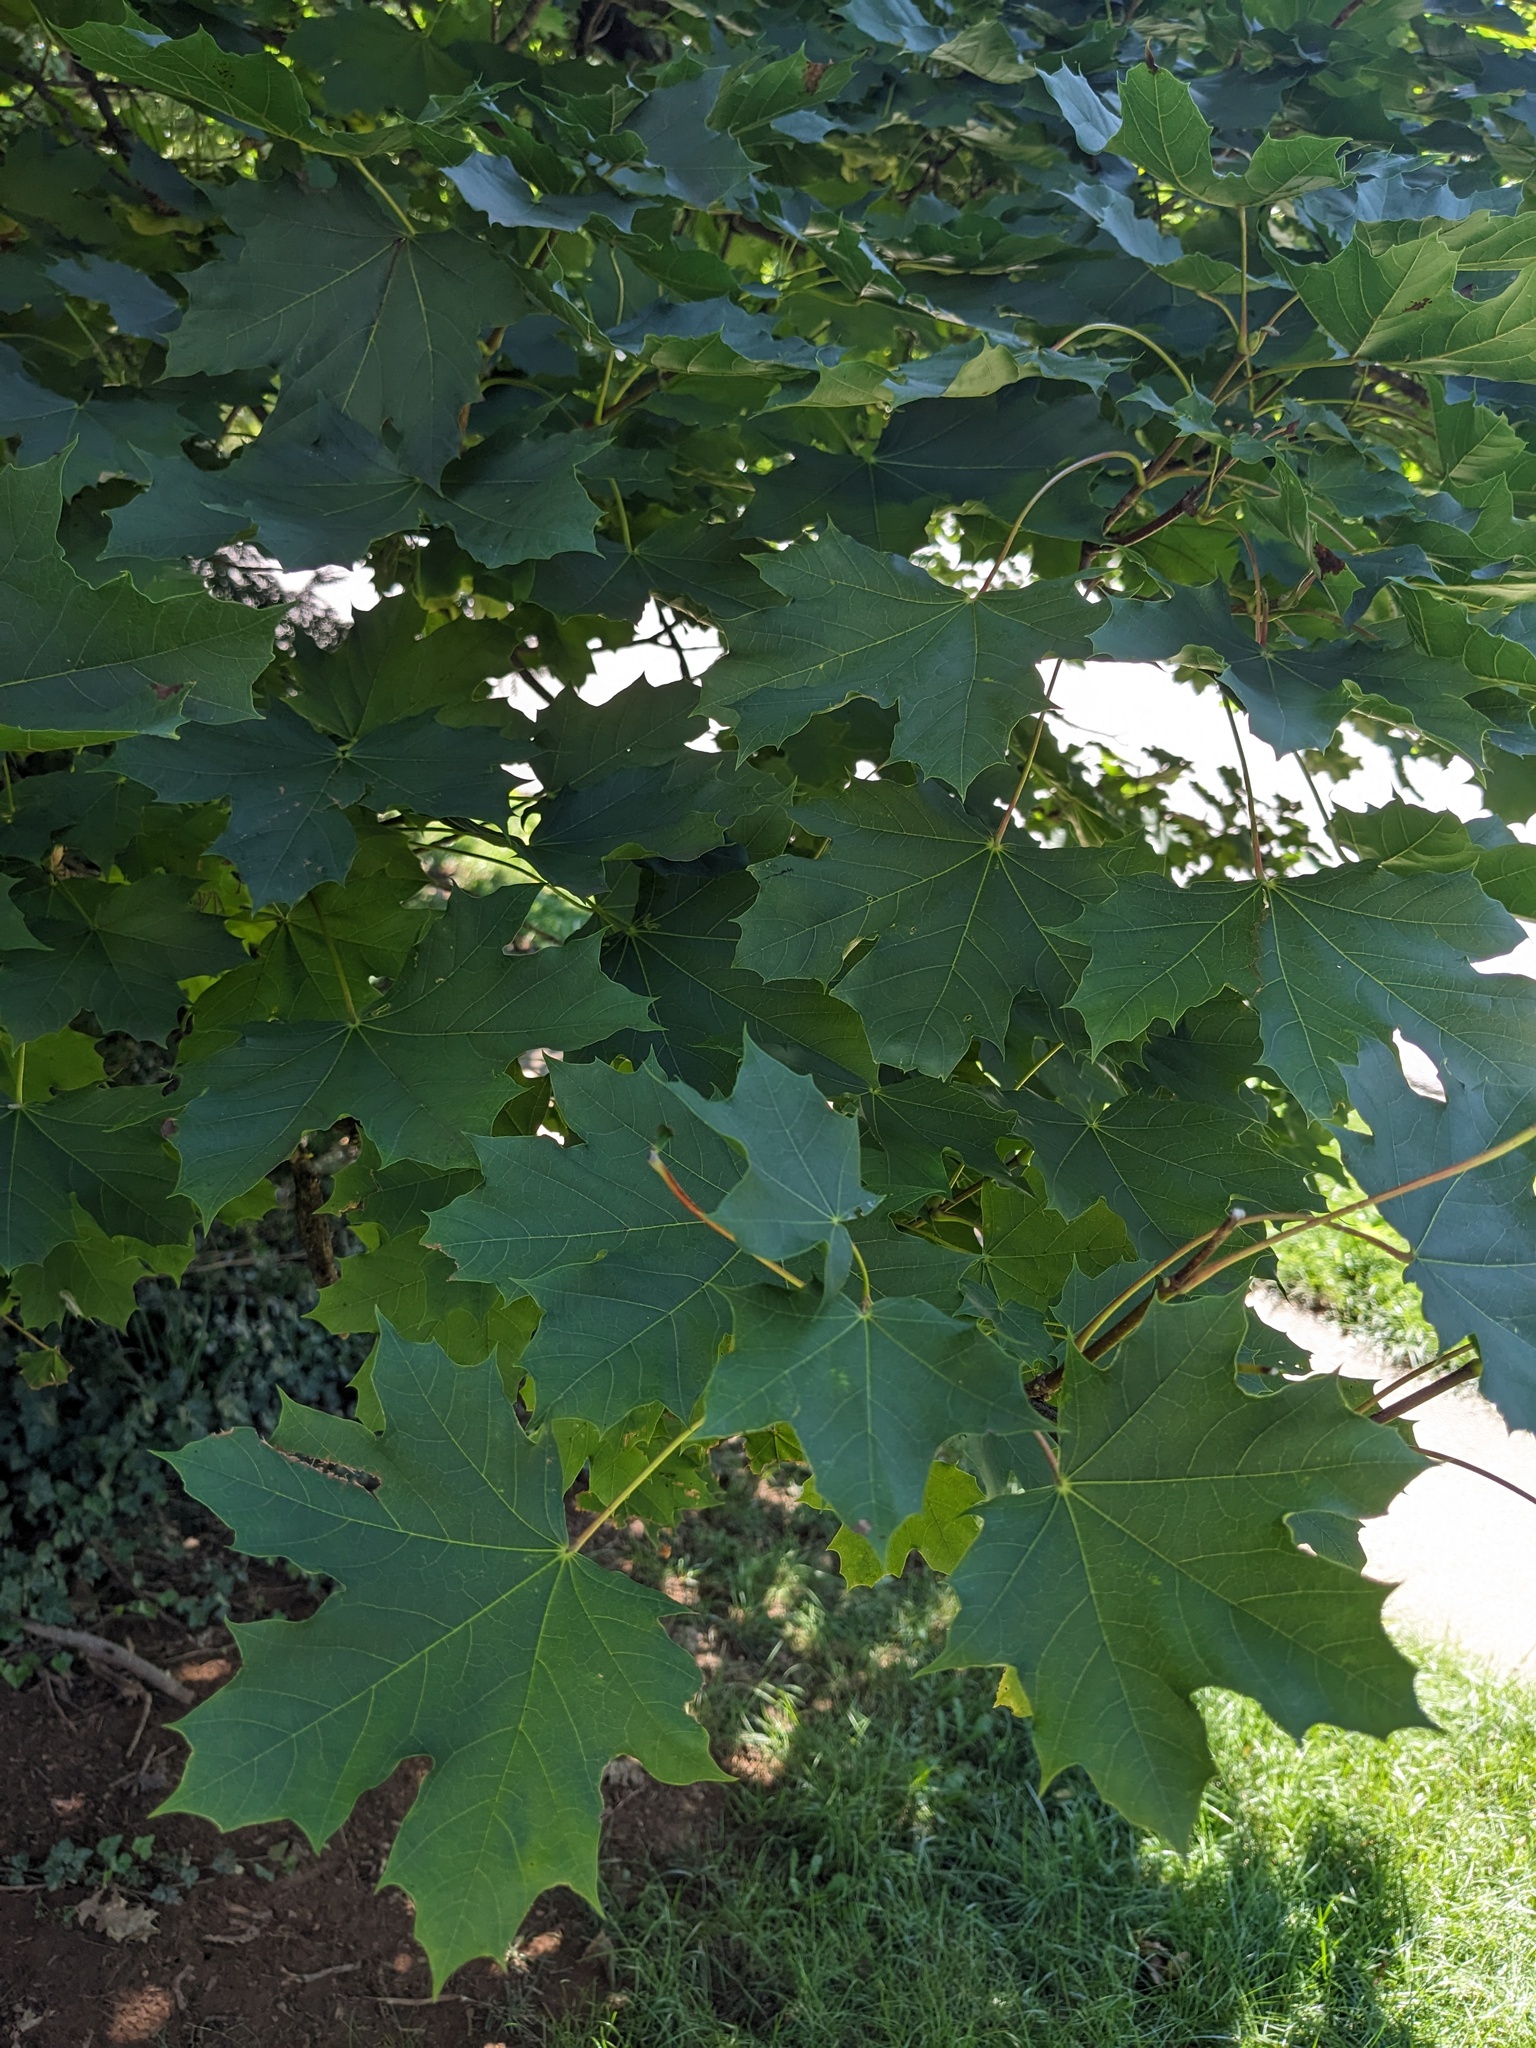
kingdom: Plantae
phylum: Tracheophyta
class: Magnoliopsida
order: Sapindales
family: Sapindaceae
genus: Acer
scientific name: Acer platanoides
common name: Norway maple
